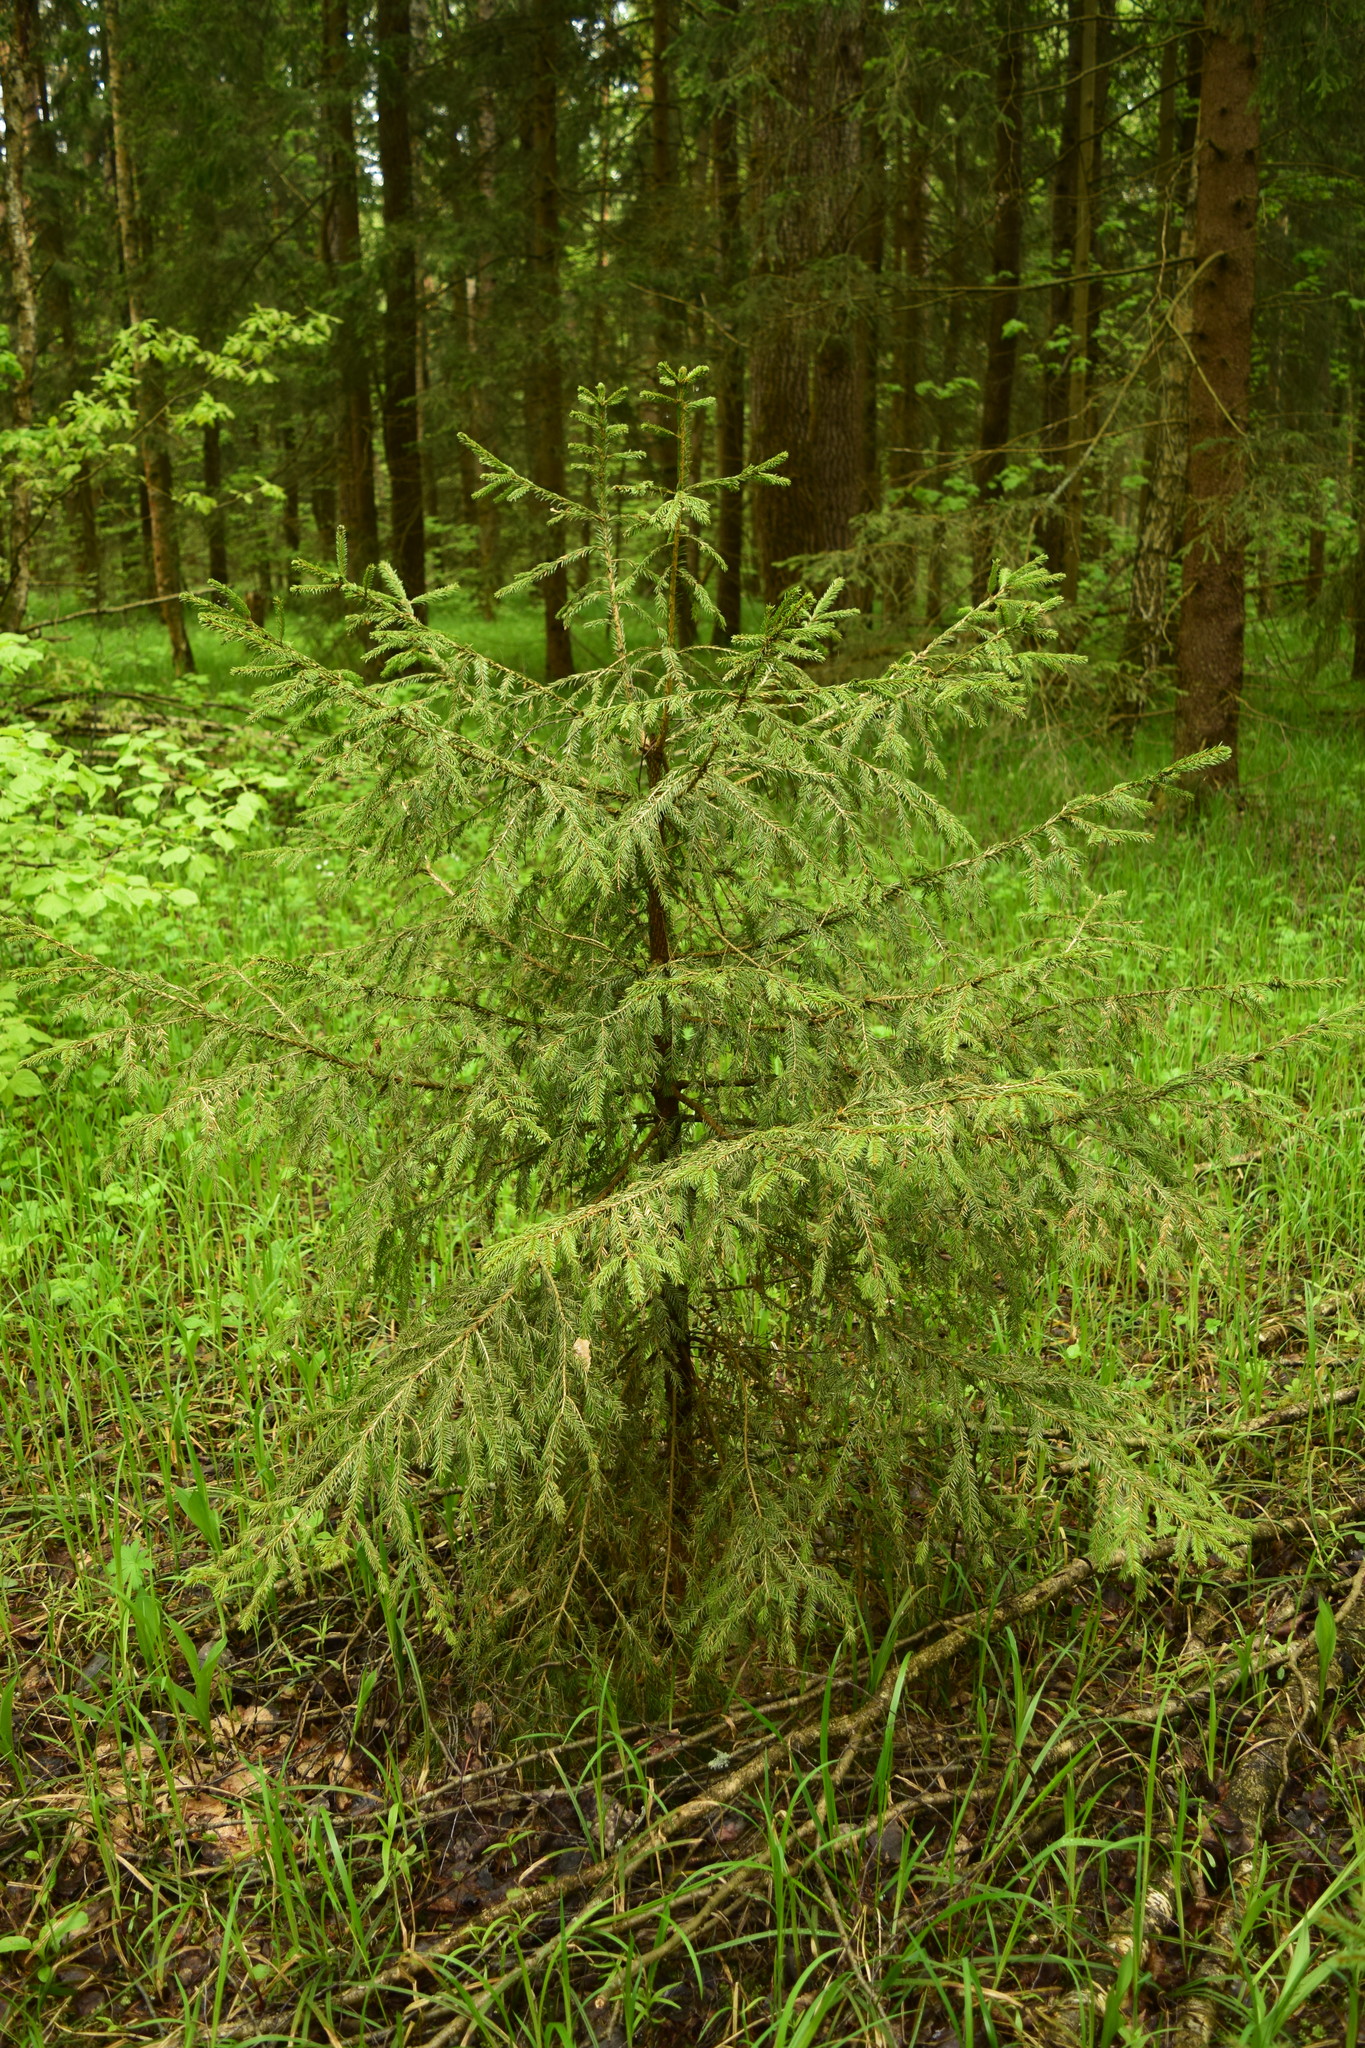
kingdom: Plantae
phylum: Tracheophyta
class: Pinopsida
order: Pinales
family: Pinaceae
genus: Picea
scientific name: Picea abies
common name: Norway spruce
